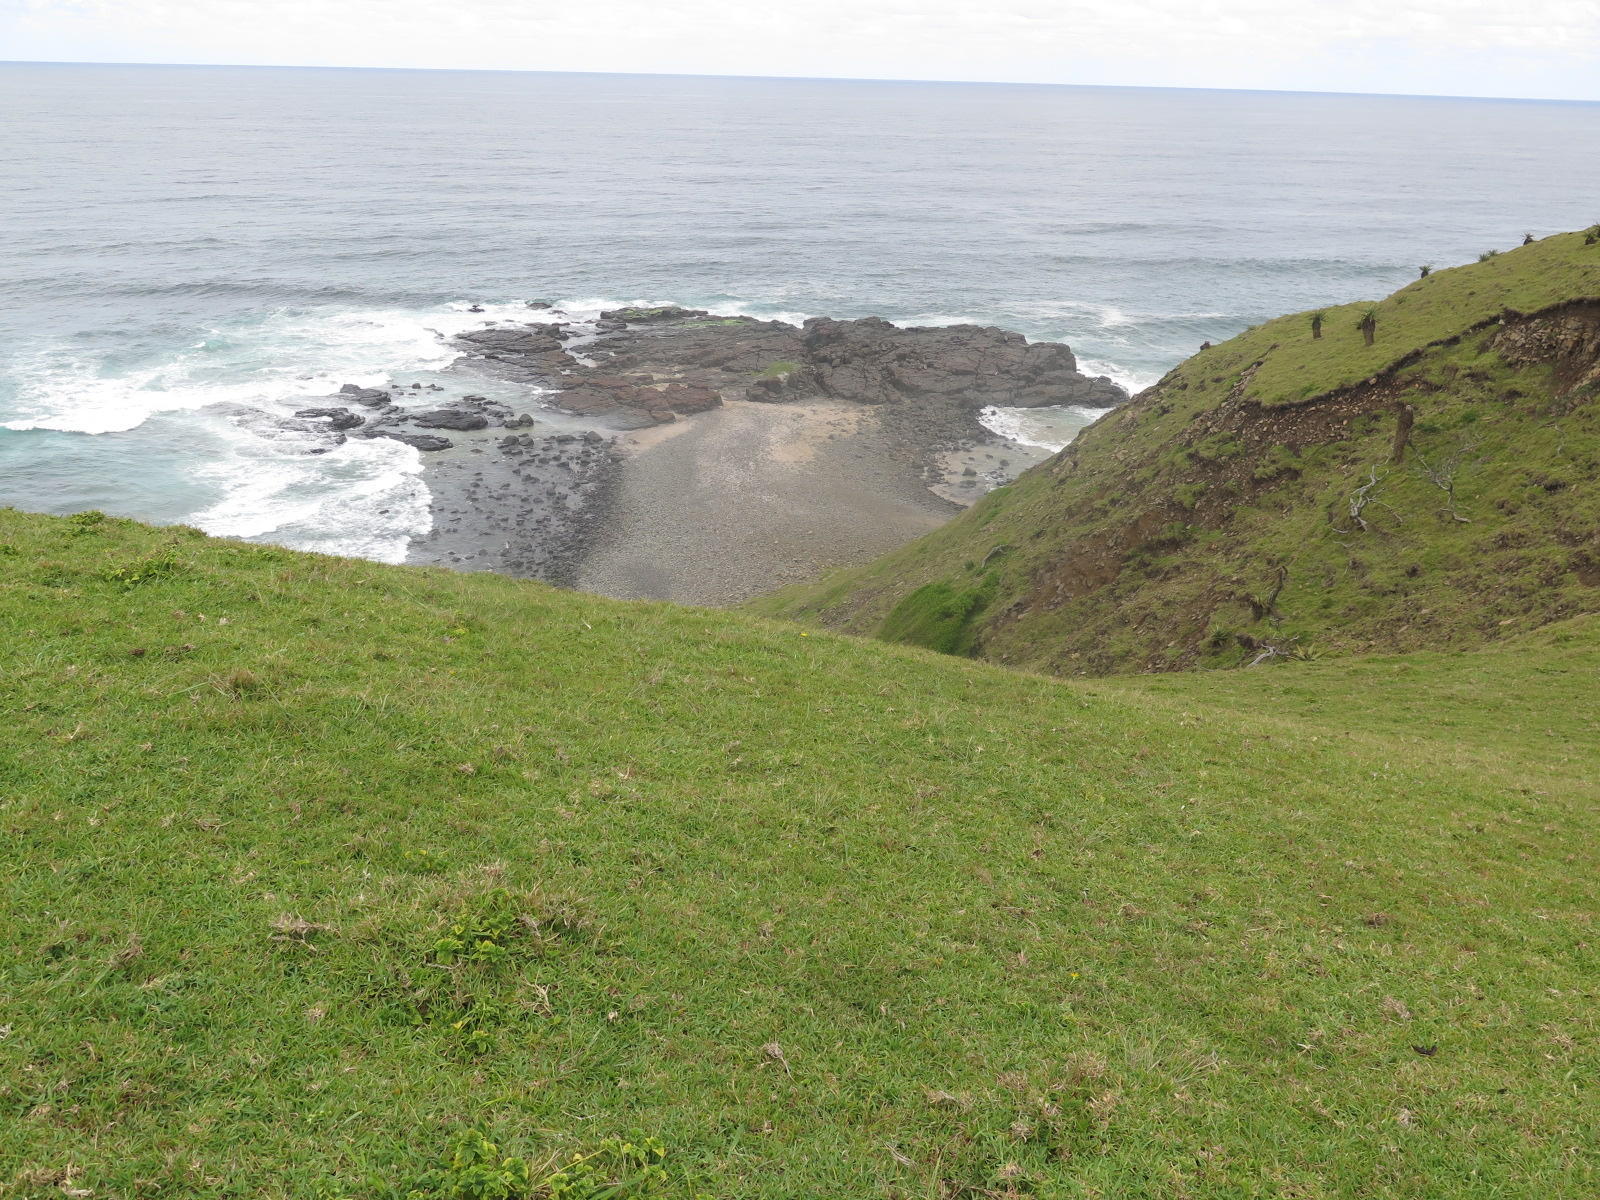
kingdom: Plantae
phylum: Tracheophyta
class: Liliopsida
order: Poales
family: Poaceae
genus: Stenotaphrum
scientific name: Stenotaphrum secundatum
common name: St. augustine grass
